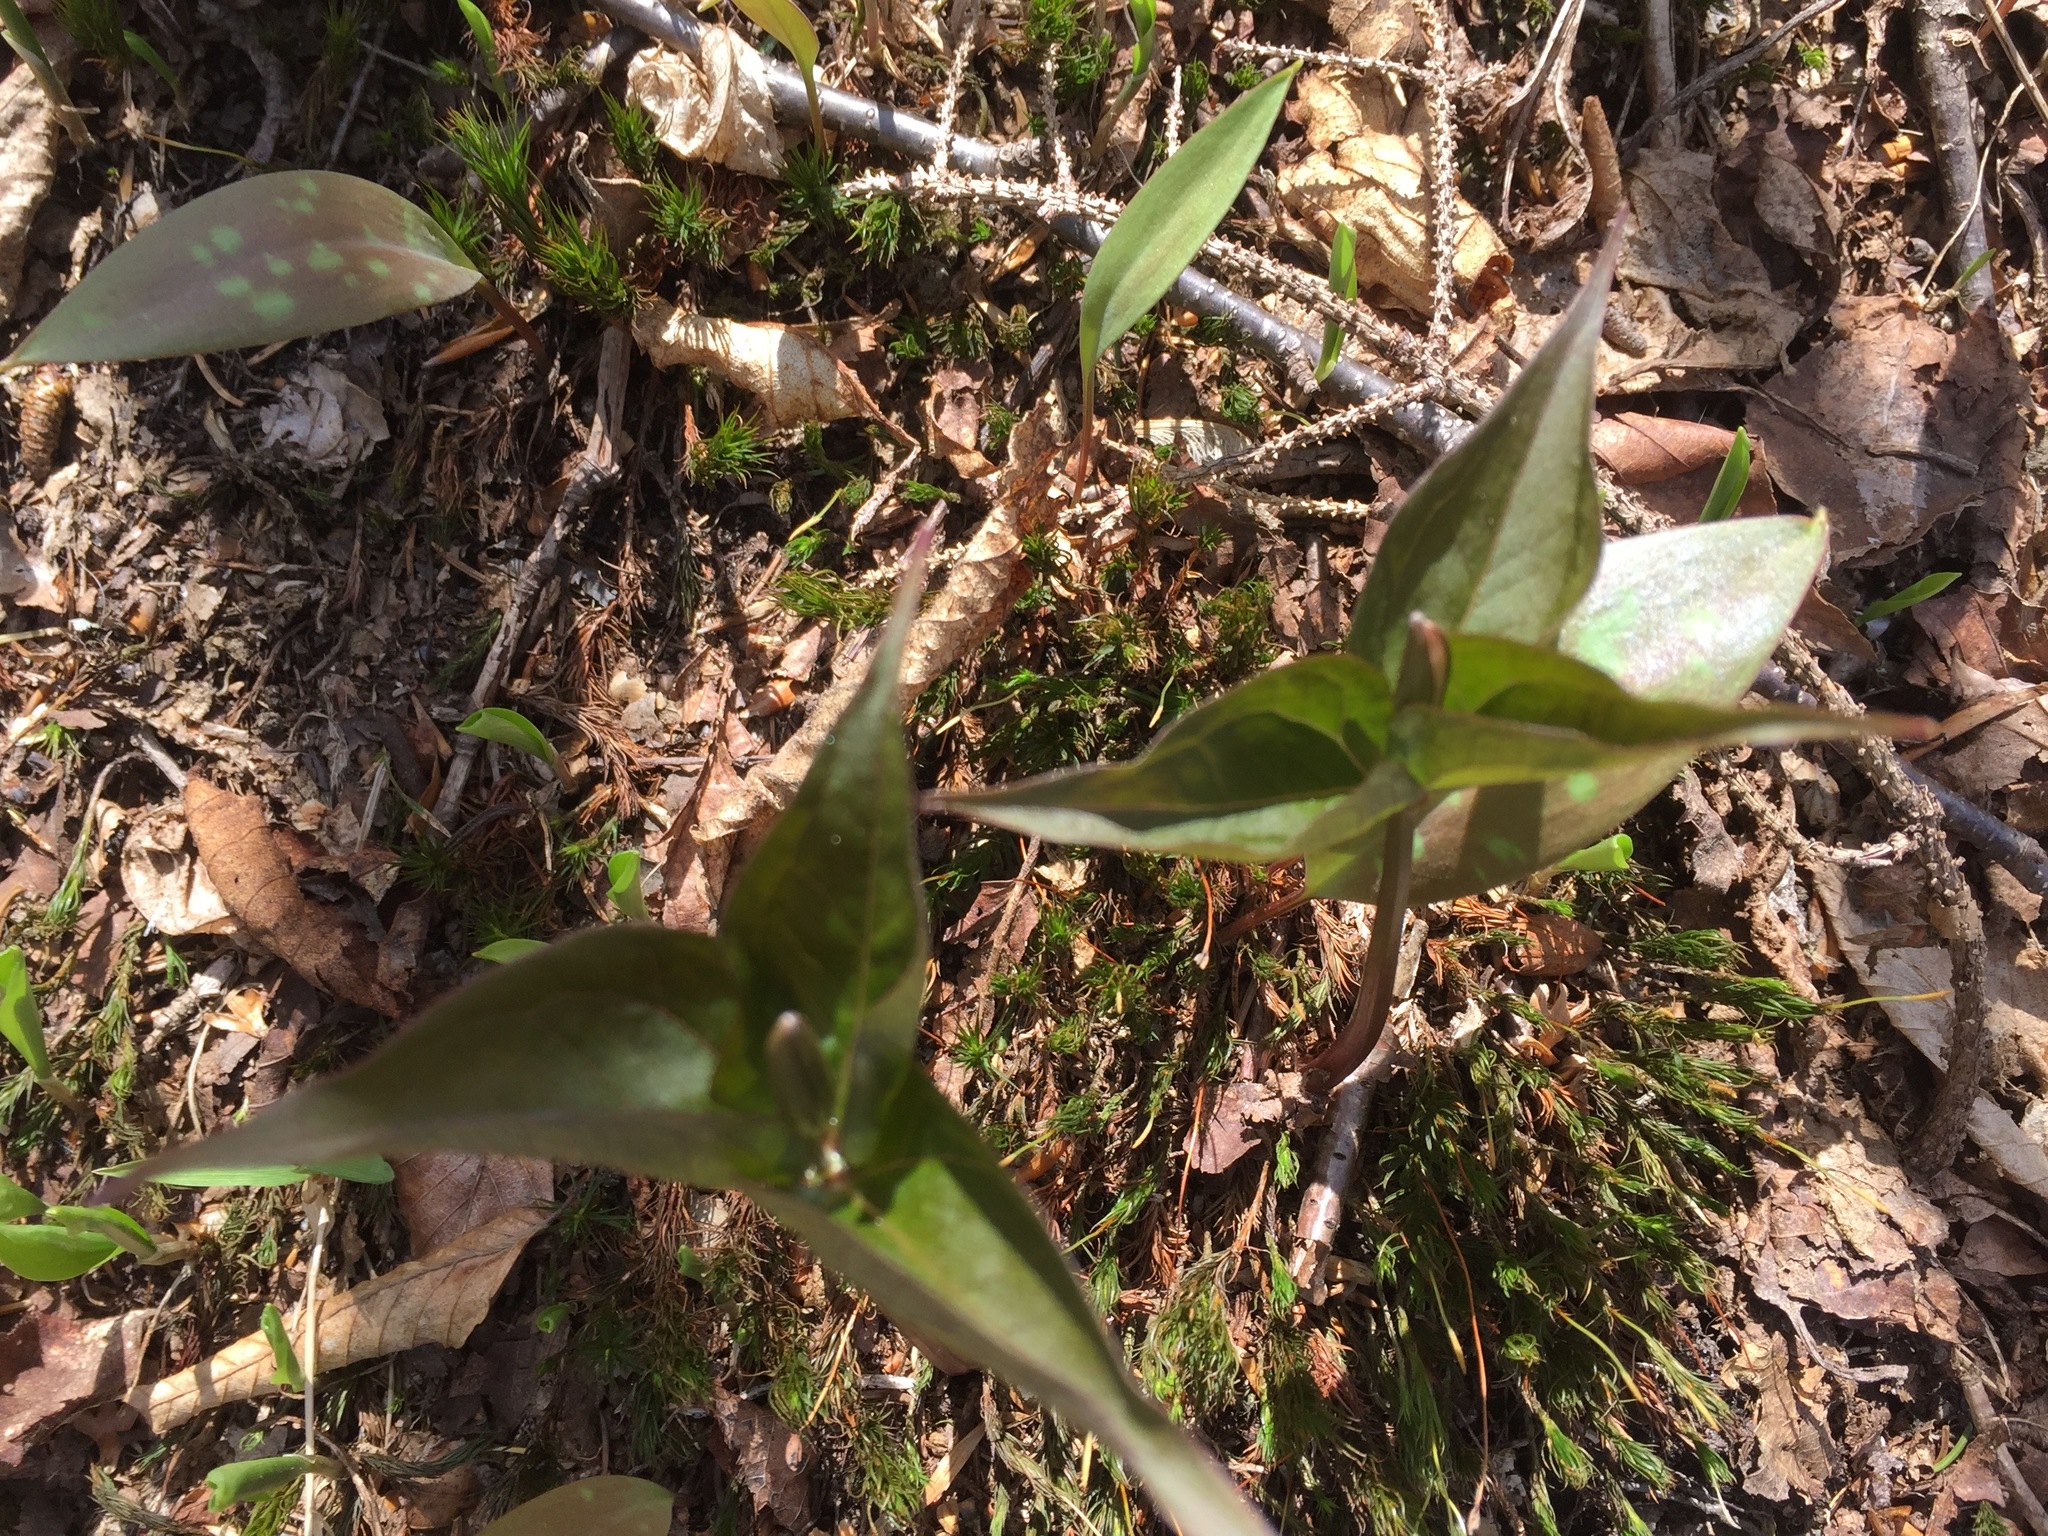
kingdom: Plantae
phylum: Tracheophyta
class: Liliopsida
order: Liliales
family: Melanthiaceae
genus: Trillium
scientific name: Trillium undulatum
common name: Paint trillium
